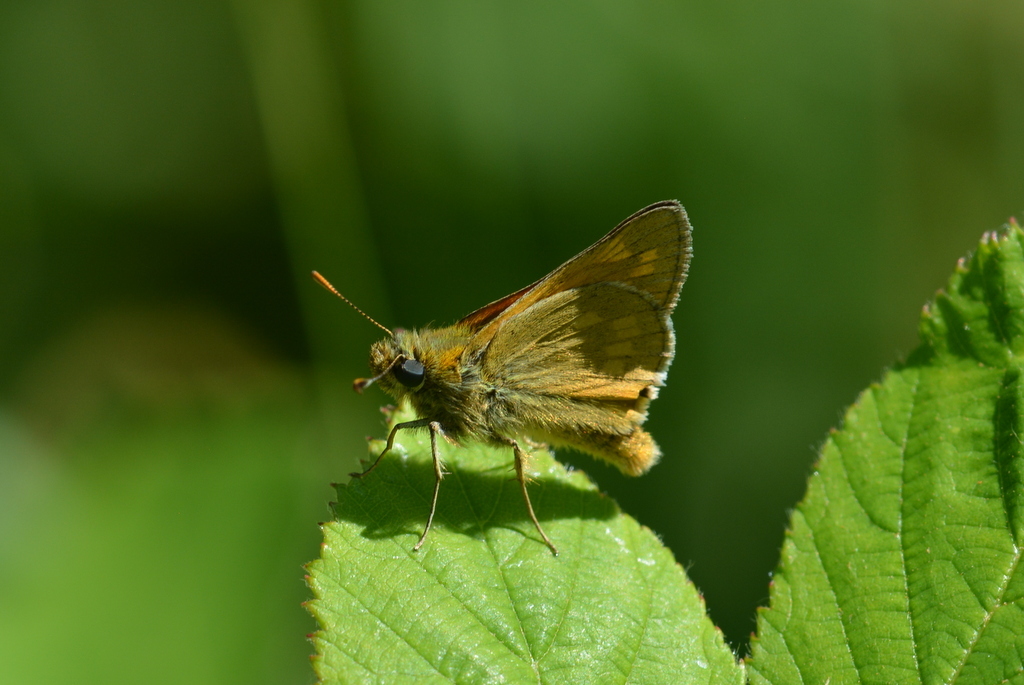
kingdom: Animalia
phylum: Arthropoda
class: Insecta
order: Lepidoptera
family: Hesperiidae
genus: Ochlodes
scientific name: Ochlodes venata
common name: Large skipper
